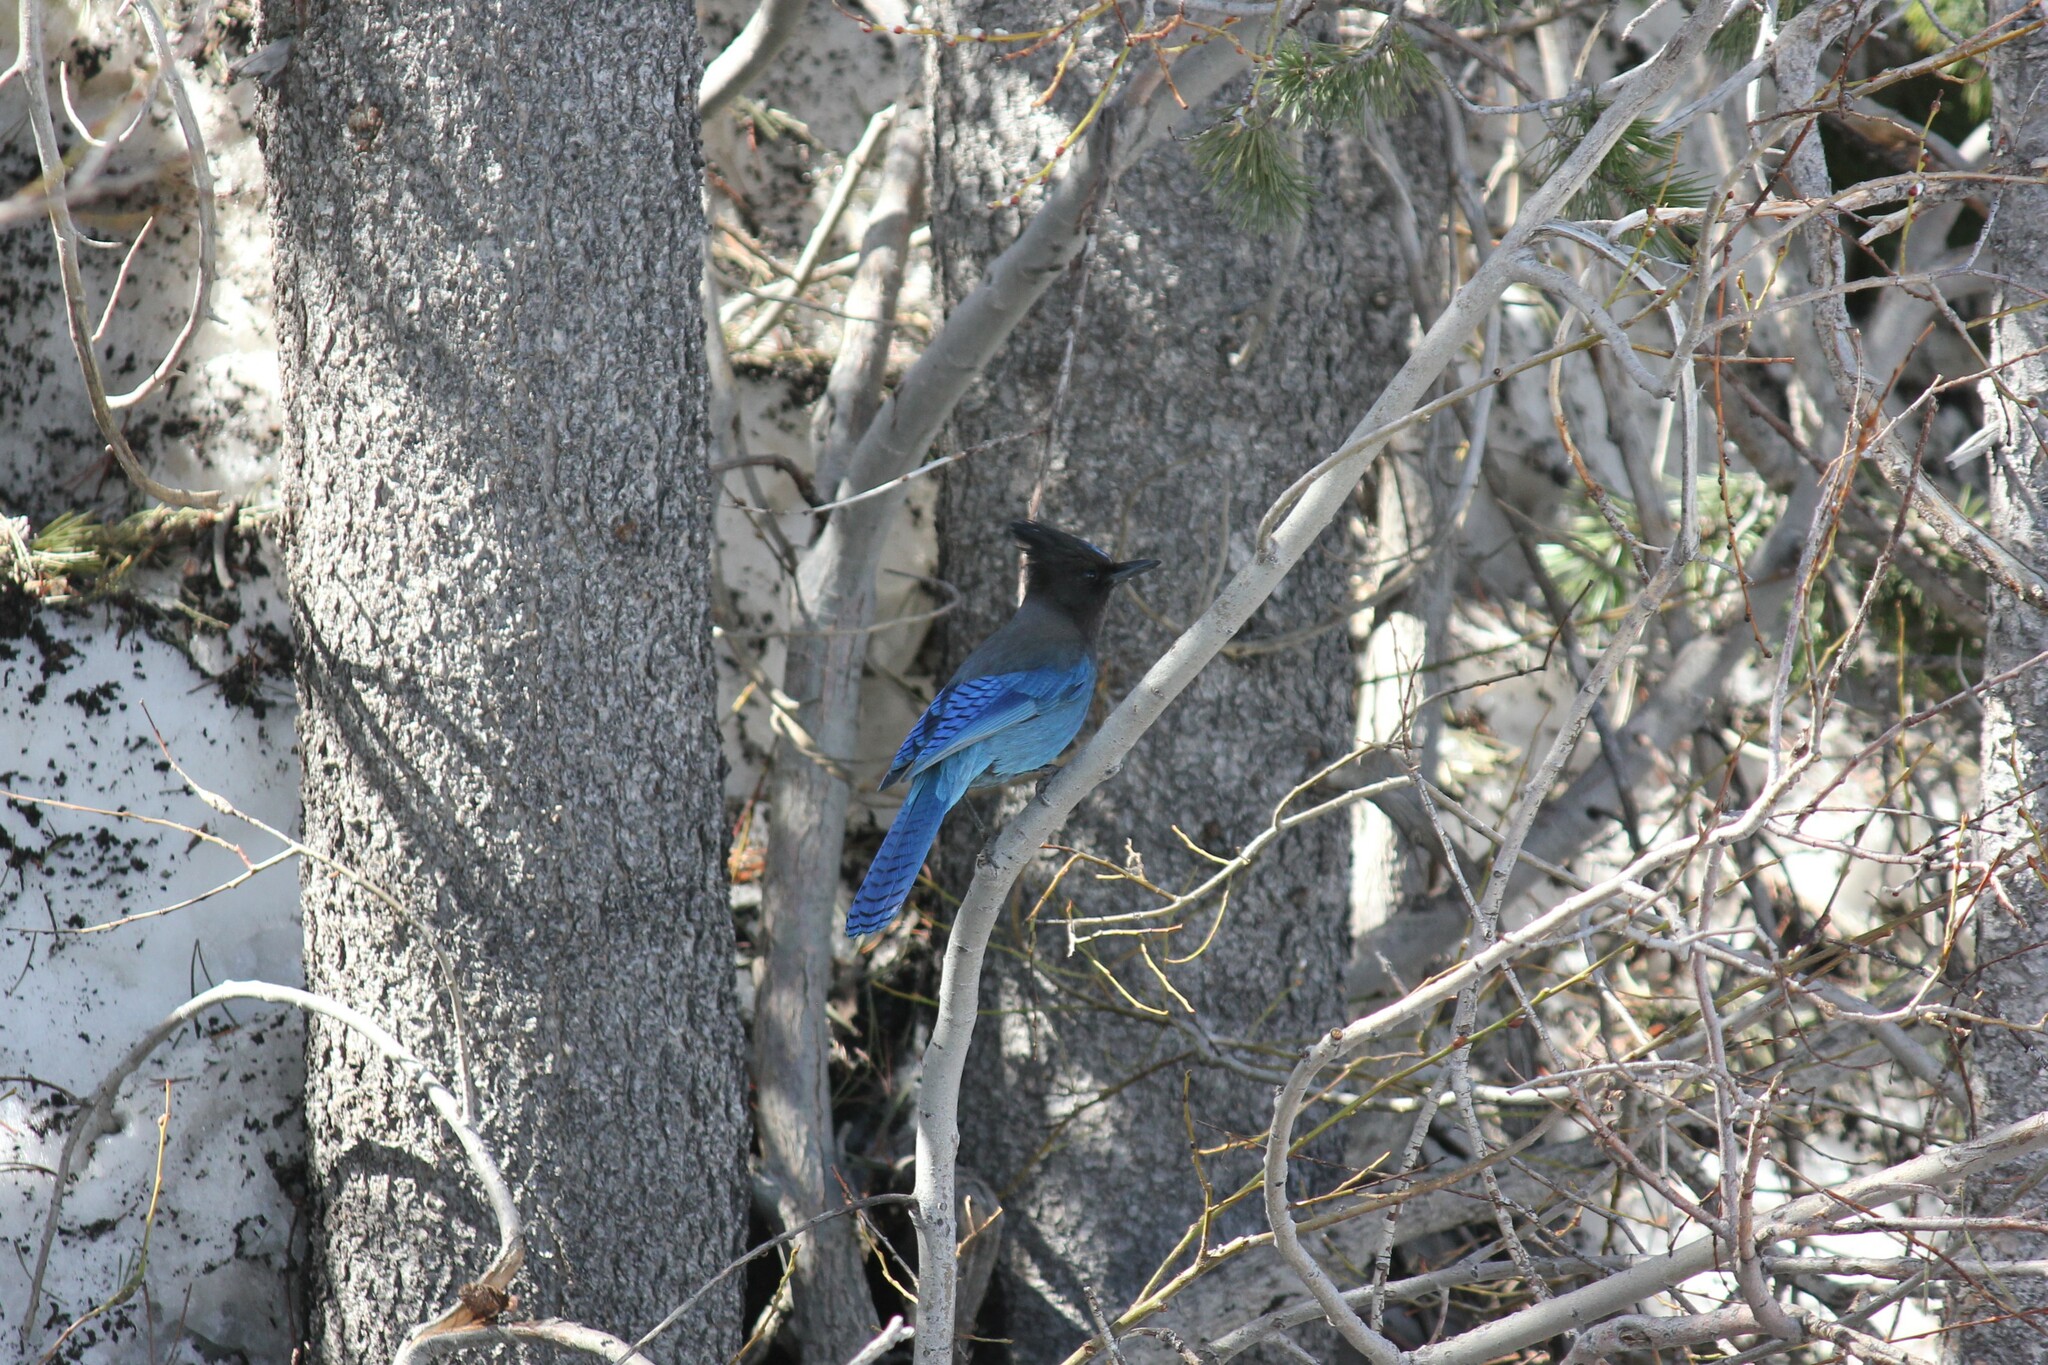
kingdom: Animalia
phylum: Chordata
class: Aves
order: Passeriformes
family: Corvidae
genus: Cyanocitta
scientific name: Cyanocitta stelleri
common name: Steller's jay
